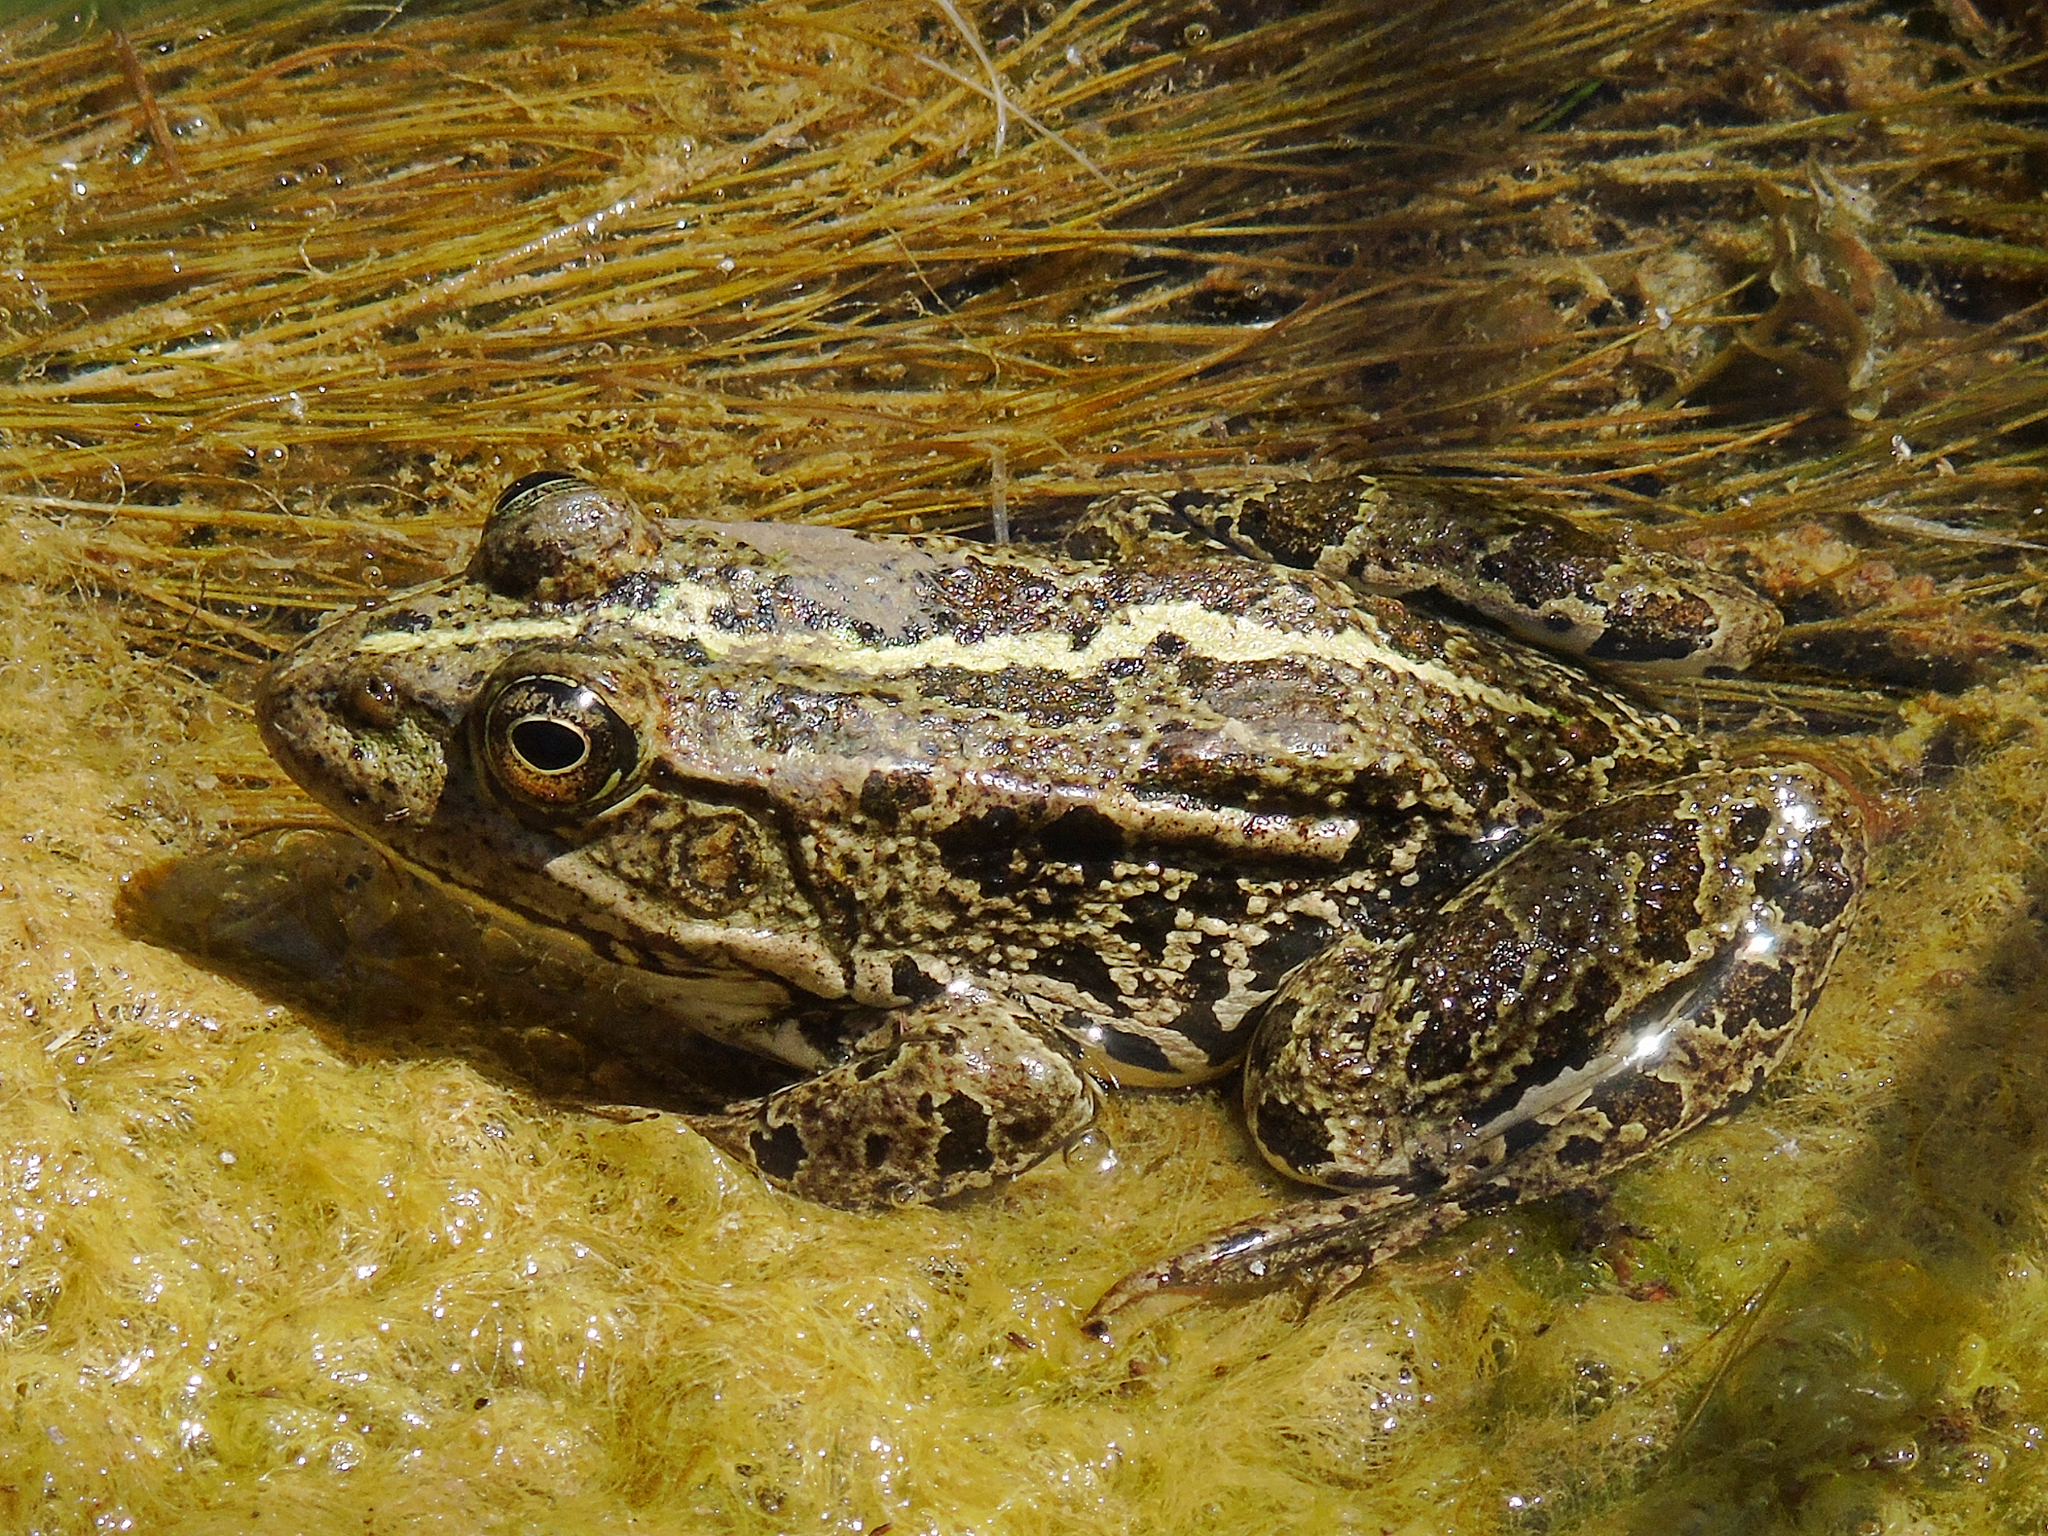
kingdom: Animalia
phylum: Chordata
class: Amphibia
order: Anura
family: Ranidae
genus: Pelophylax
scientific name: Pelophylax ridibundus
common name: Marsh frog
